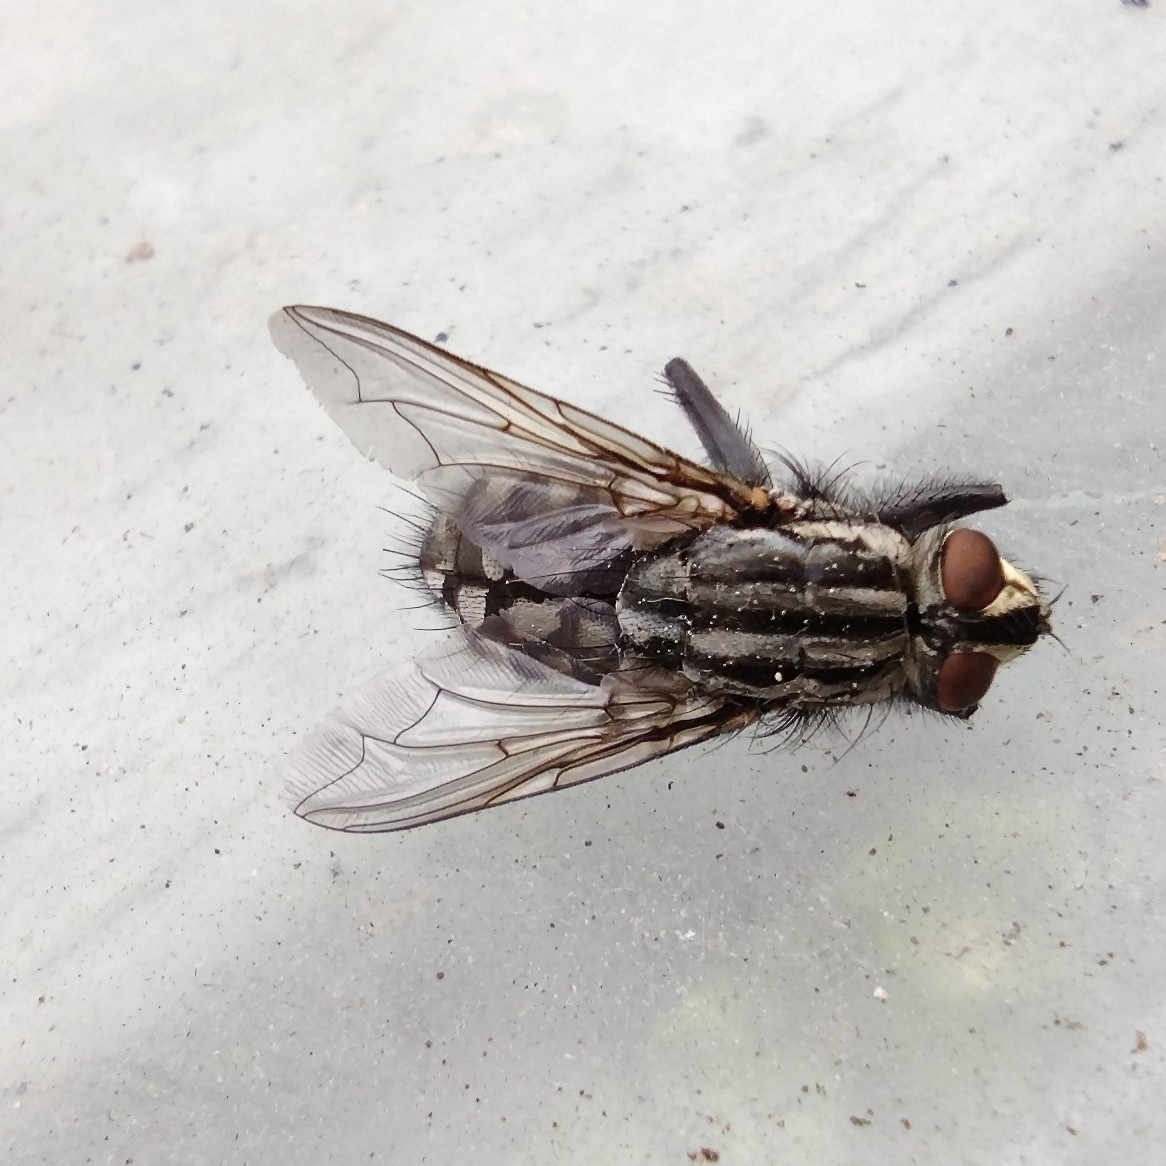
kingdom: Animalia
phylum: Arthropoda
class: Insecta
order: Diptera
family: Sarcophagidae
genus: Sarcophaga
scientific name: Sarcophaga
